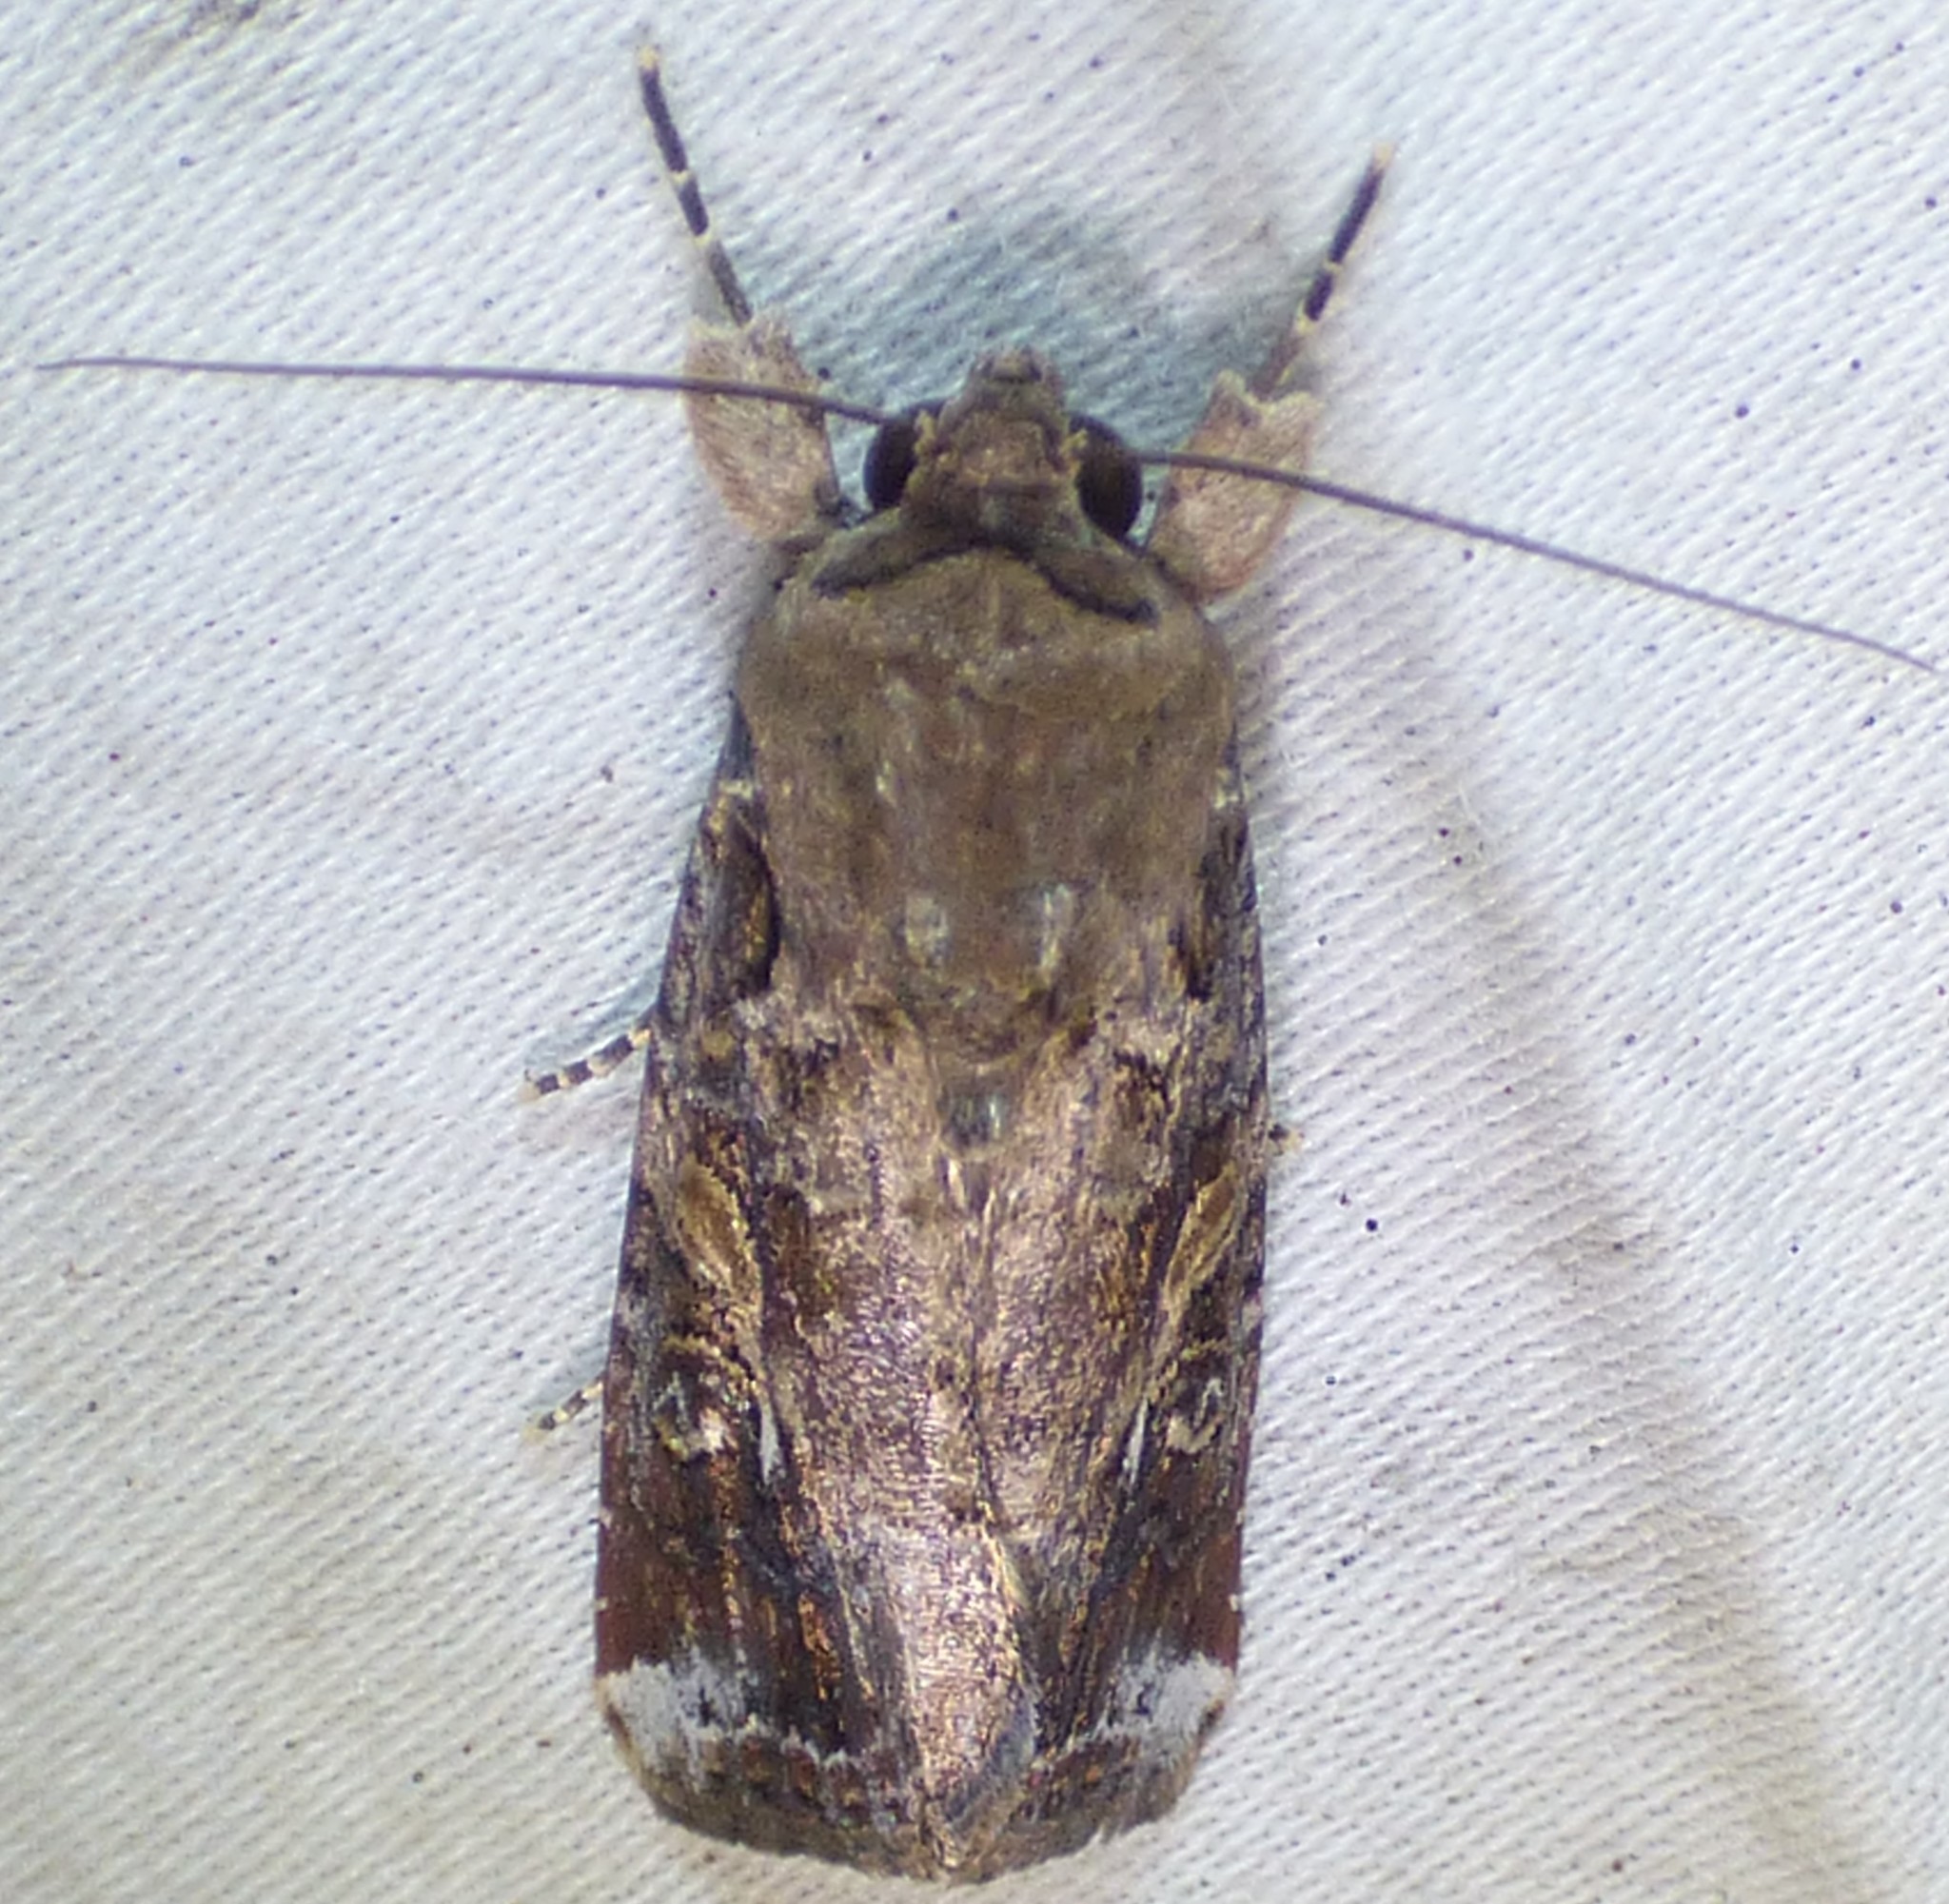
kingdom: Animalia
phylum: Arthropoda
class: Insecta
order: Lepidoptera
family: Noctuidae
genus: Spodoptera
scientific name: Spodoptera frugiperda
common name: Fall armyworm
